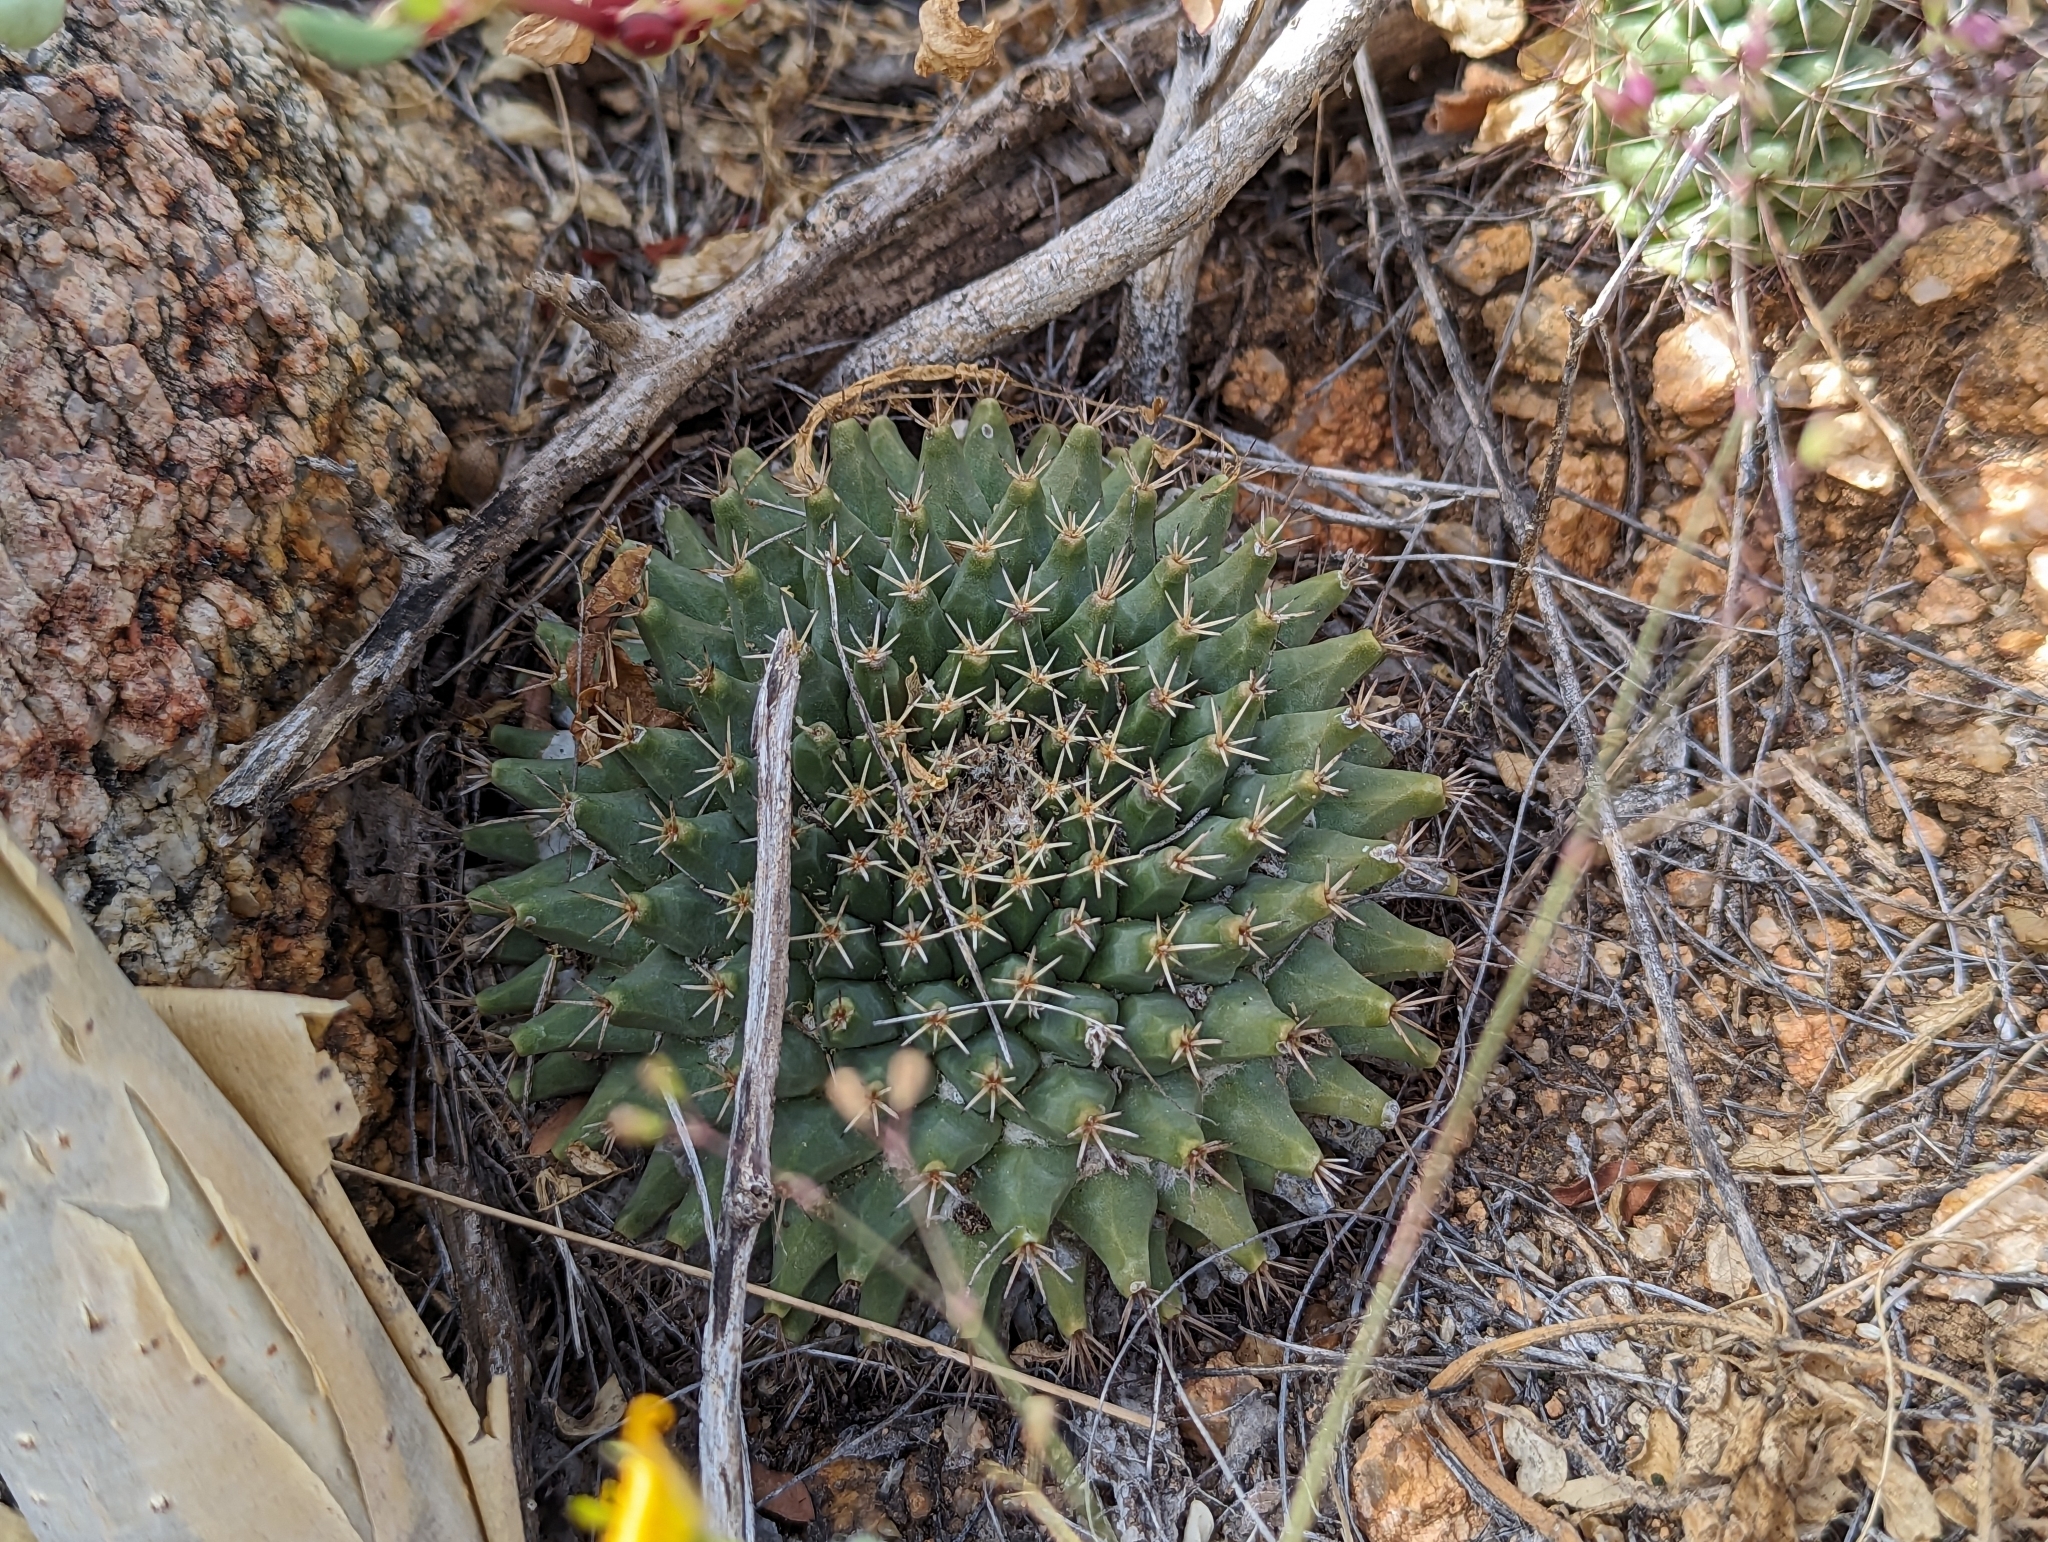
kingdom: Plantae
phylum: Tracheophyta
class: Magnoliopsida
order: Caryophyllales
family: Cactaceae
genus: Mammillaria
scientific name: Mammillaria peninsularis
